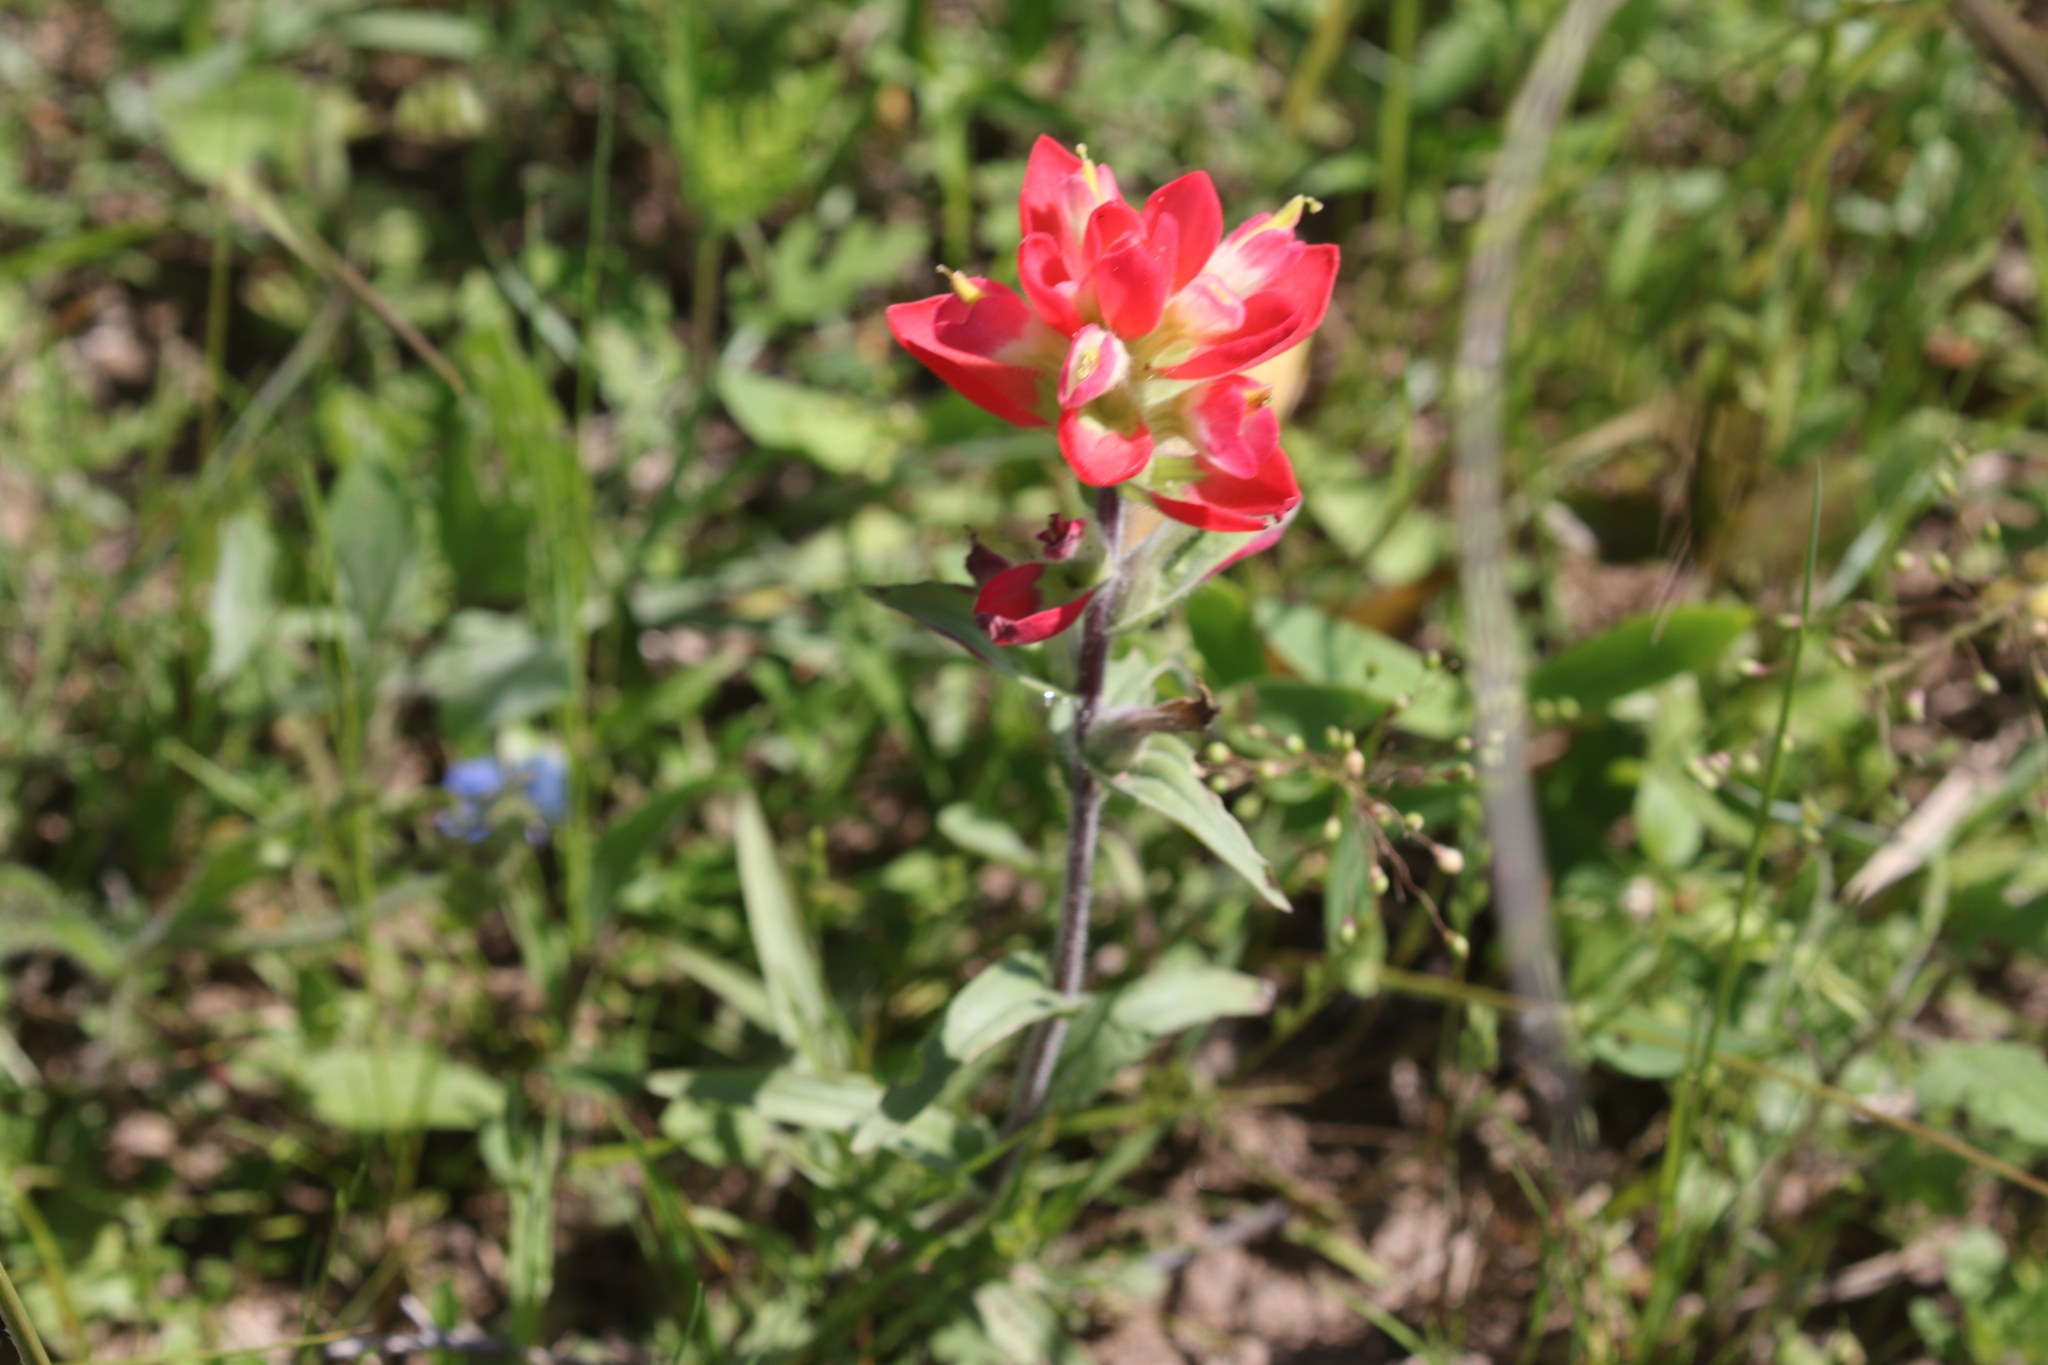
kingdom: Plantae
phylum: Tracheophyta
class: Magnoliopsida
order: Lamiales
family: Orobanchaceae
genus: Castilleja
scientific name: Castilleja indivisa
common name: Texas paintbrush
